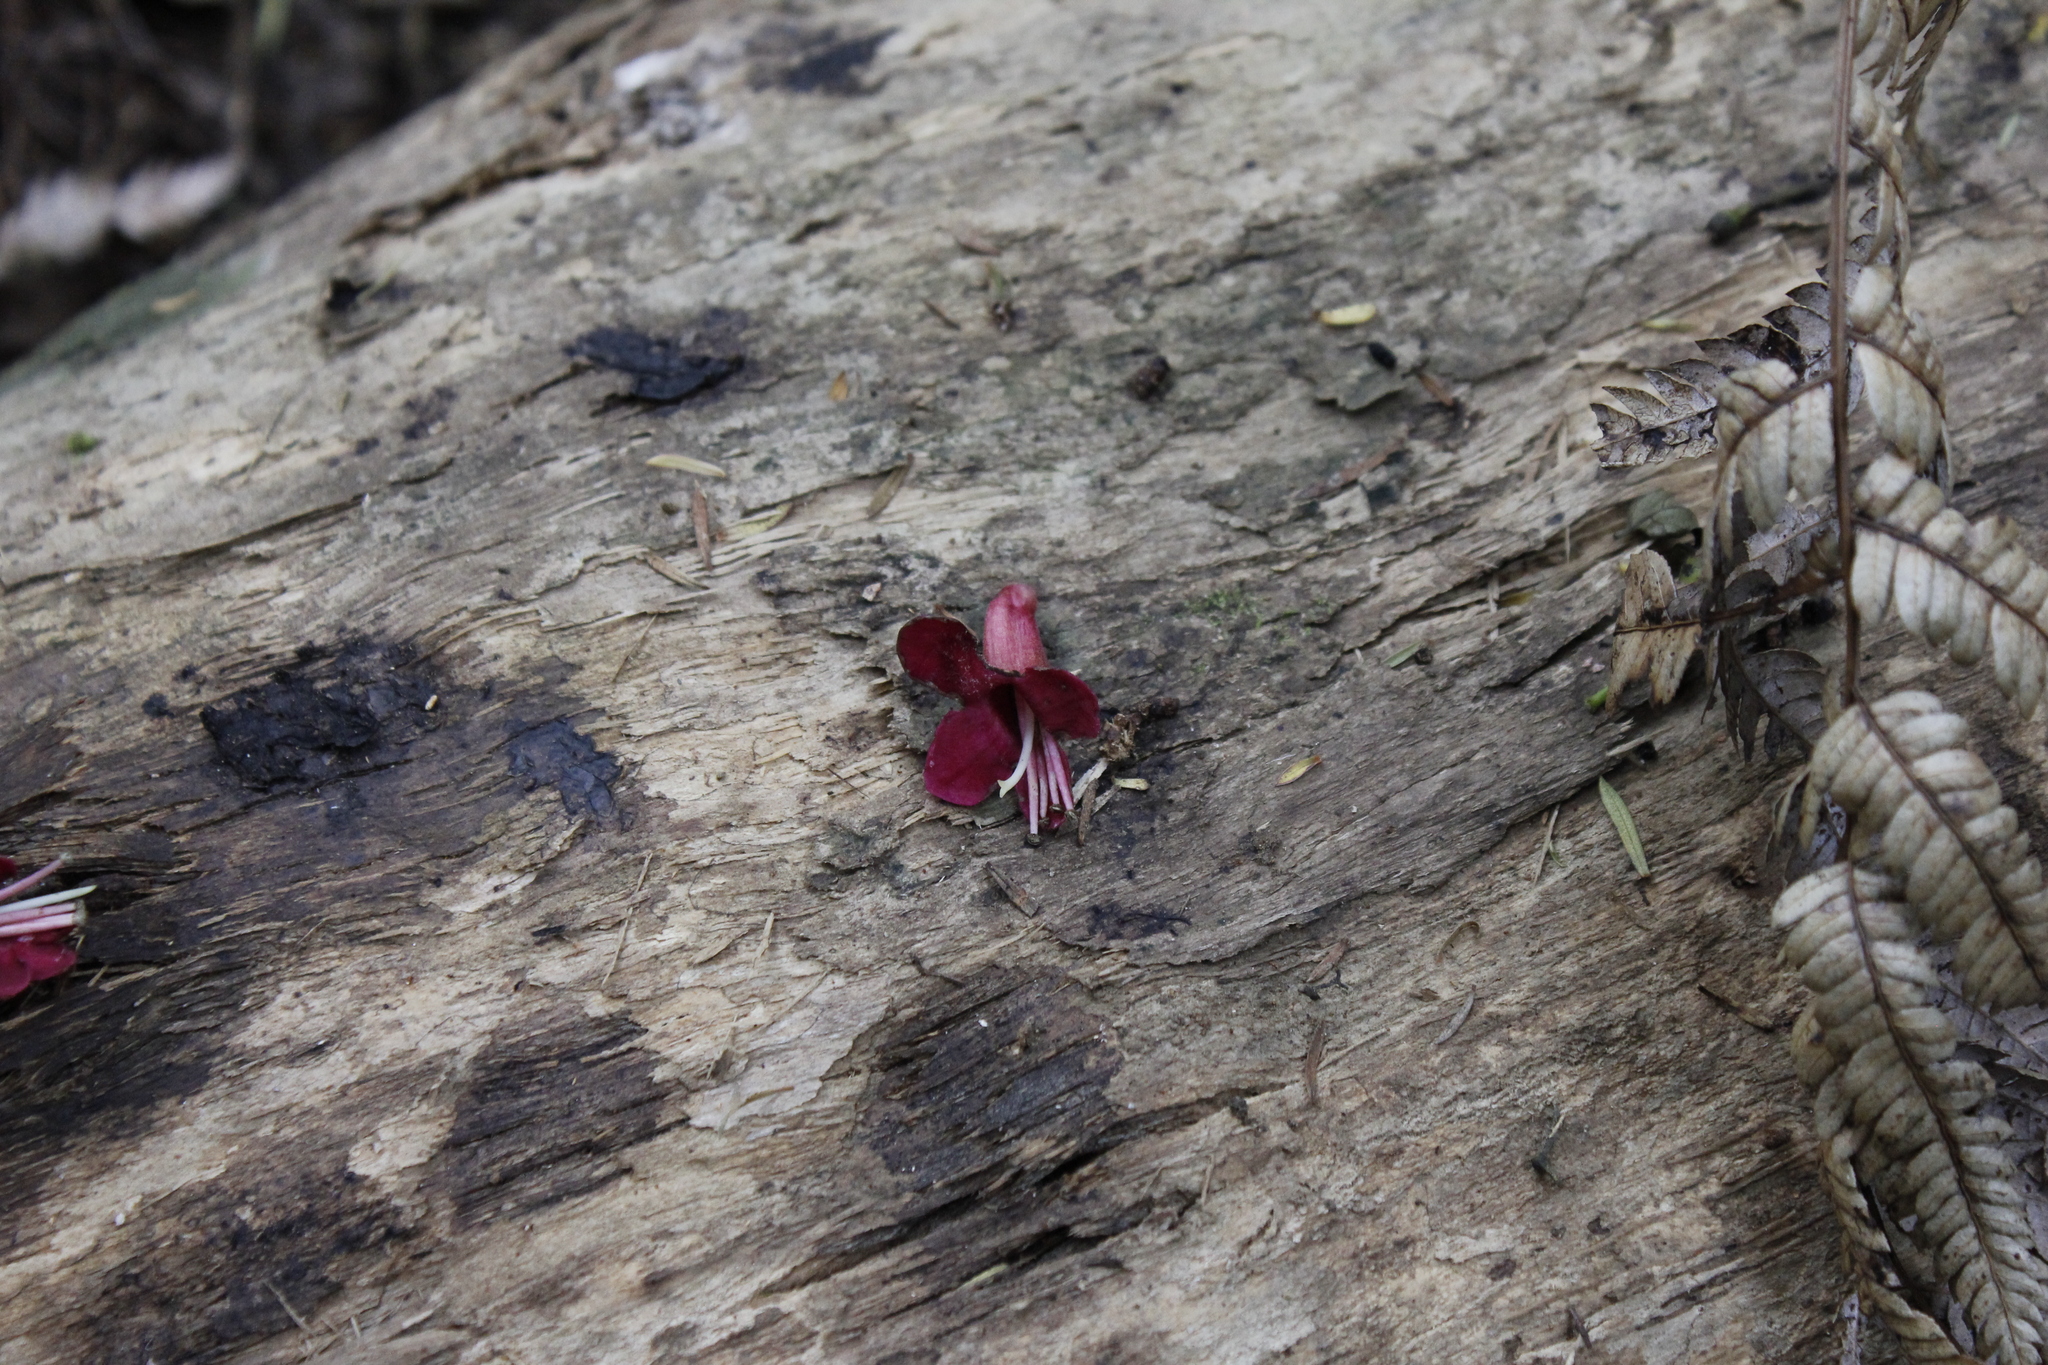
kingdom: Plantae
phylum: Tracheophyta
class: Magnoliopsida
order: Lamiales
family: Lamiaceae
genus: Vitex
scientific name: Vitex lucens
